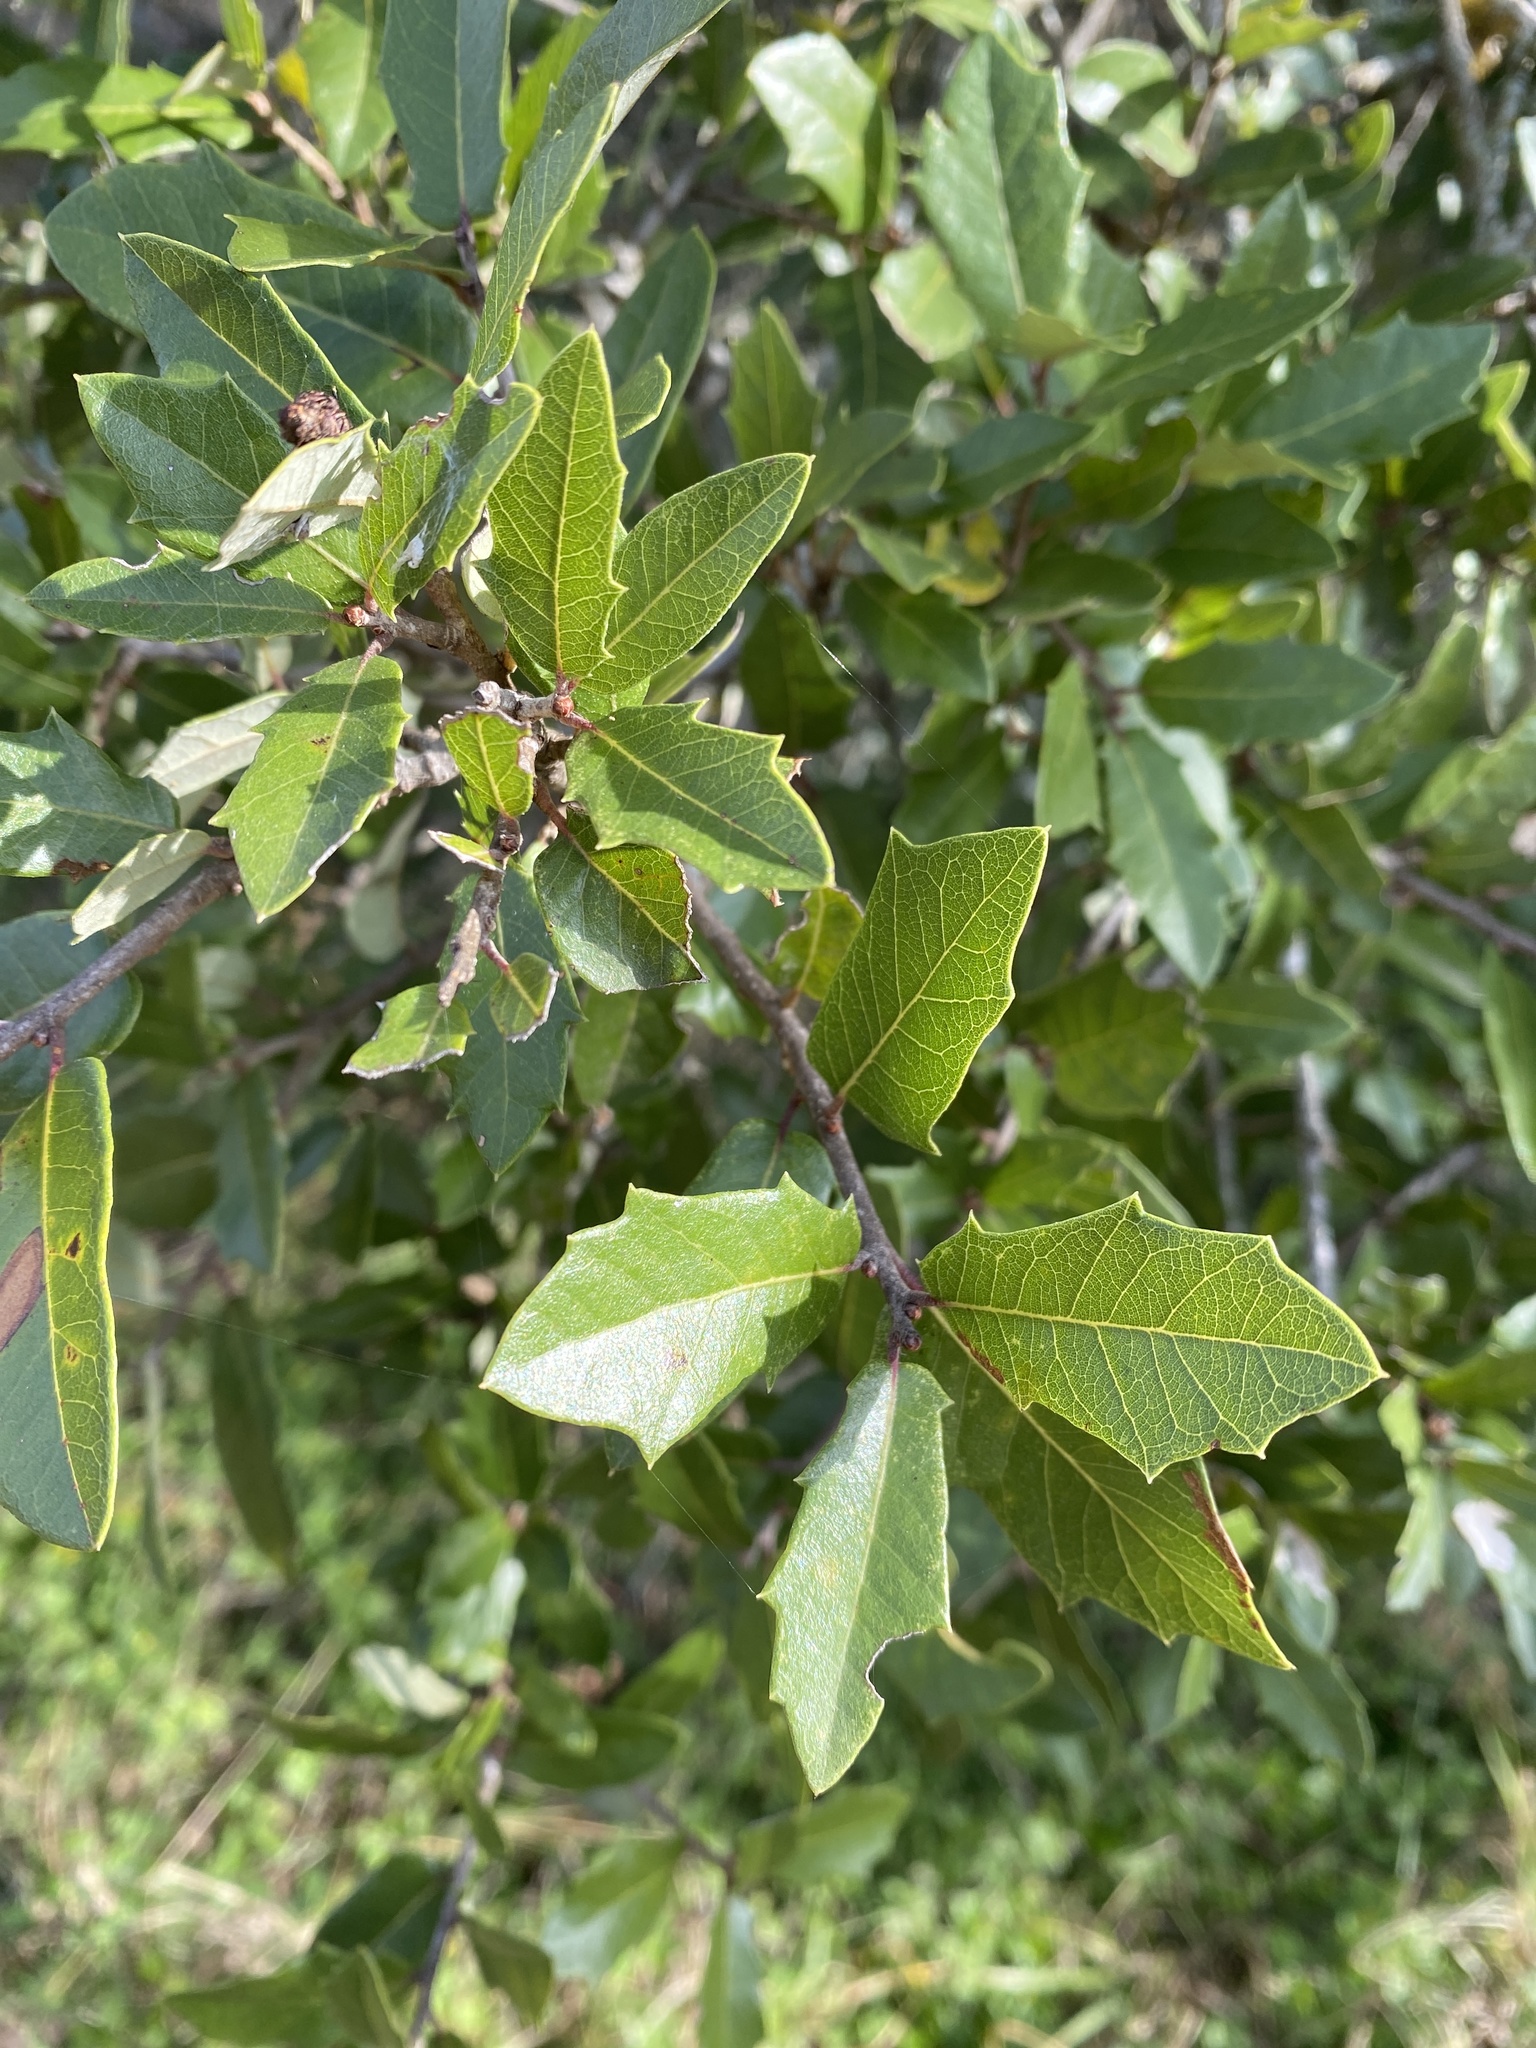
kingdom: Plantae
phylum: Tracheophyta
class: Magnoliopsida
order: Fagales
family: Fagaceae
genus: Quercus
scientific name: Quercus fusiformis
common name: Texas live oak
